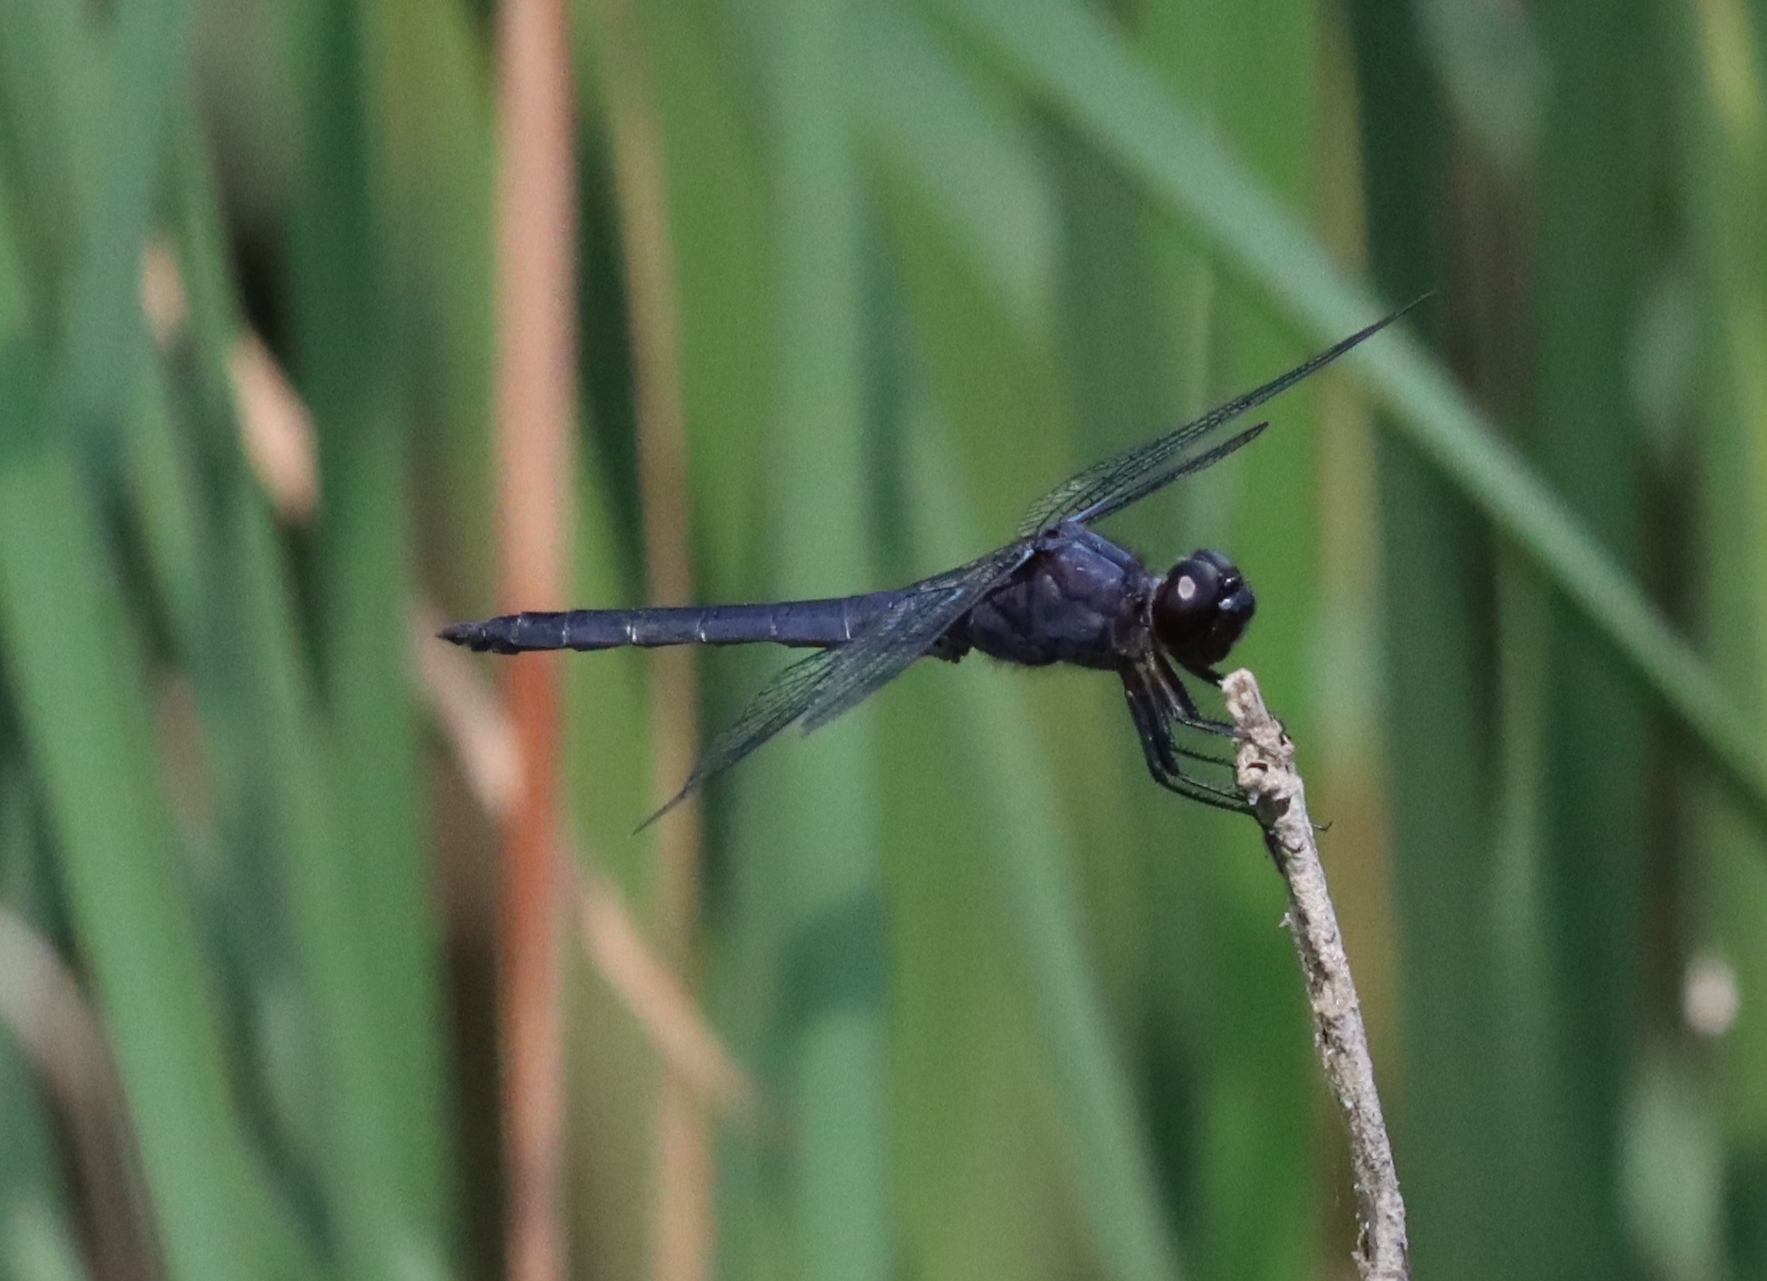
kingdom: Animalia
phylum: Arthropoda
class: Insecta
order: Odonata
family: Libellulidae
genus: Libellula
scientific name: Libellula incesta
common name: Slaty skimmer
